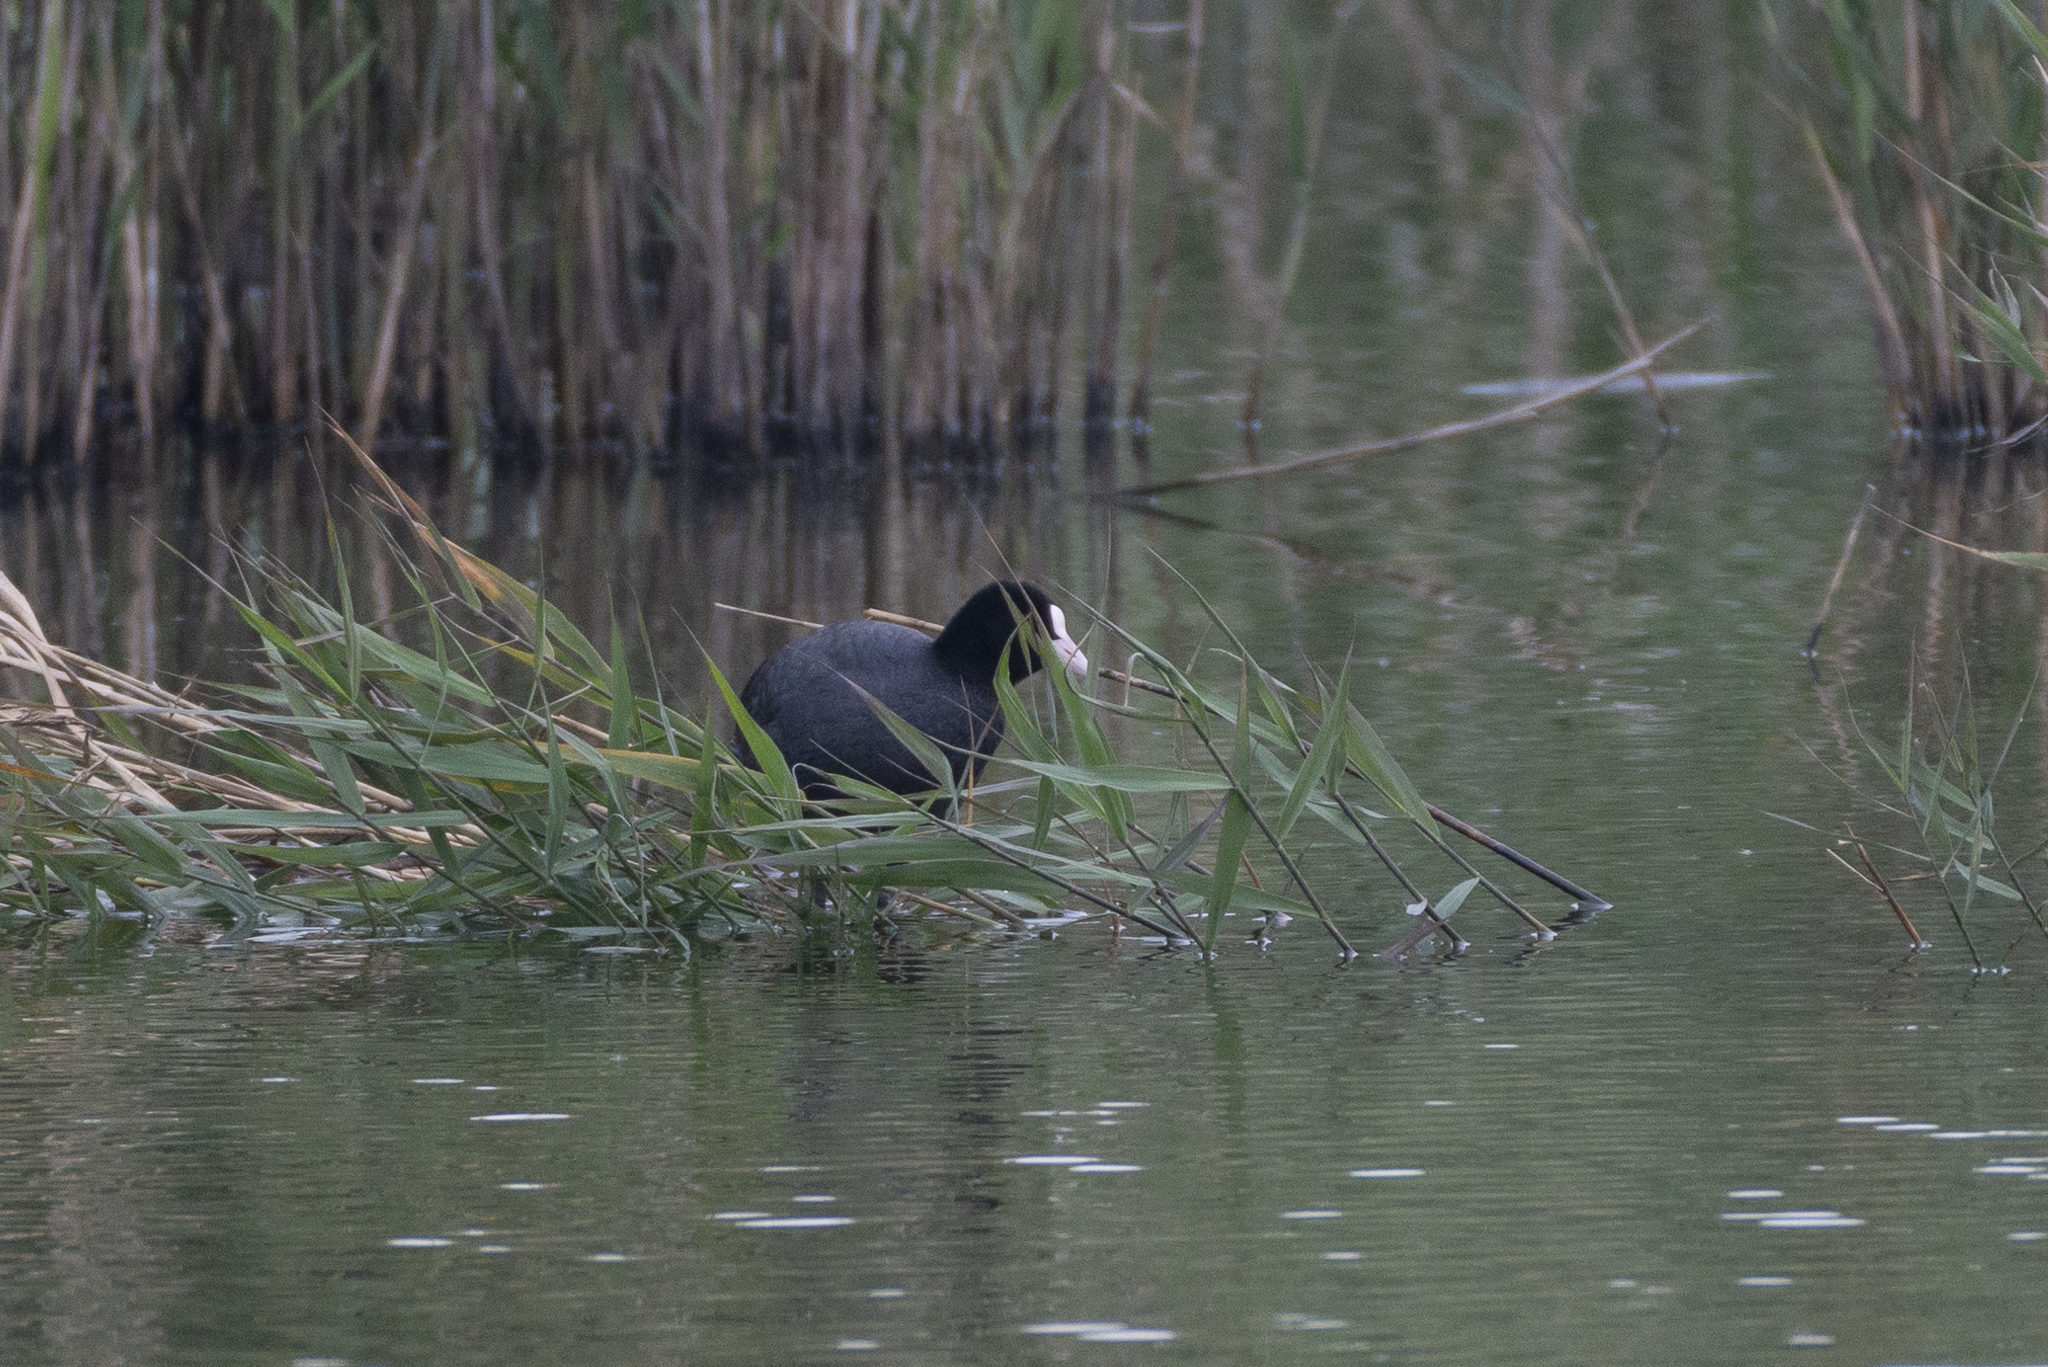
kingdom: Animalia
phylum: Chordata
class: Aves
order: Gruiformes
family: Rallidae
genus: Fulica
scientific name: Fulica atra
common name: Eurasian coot
